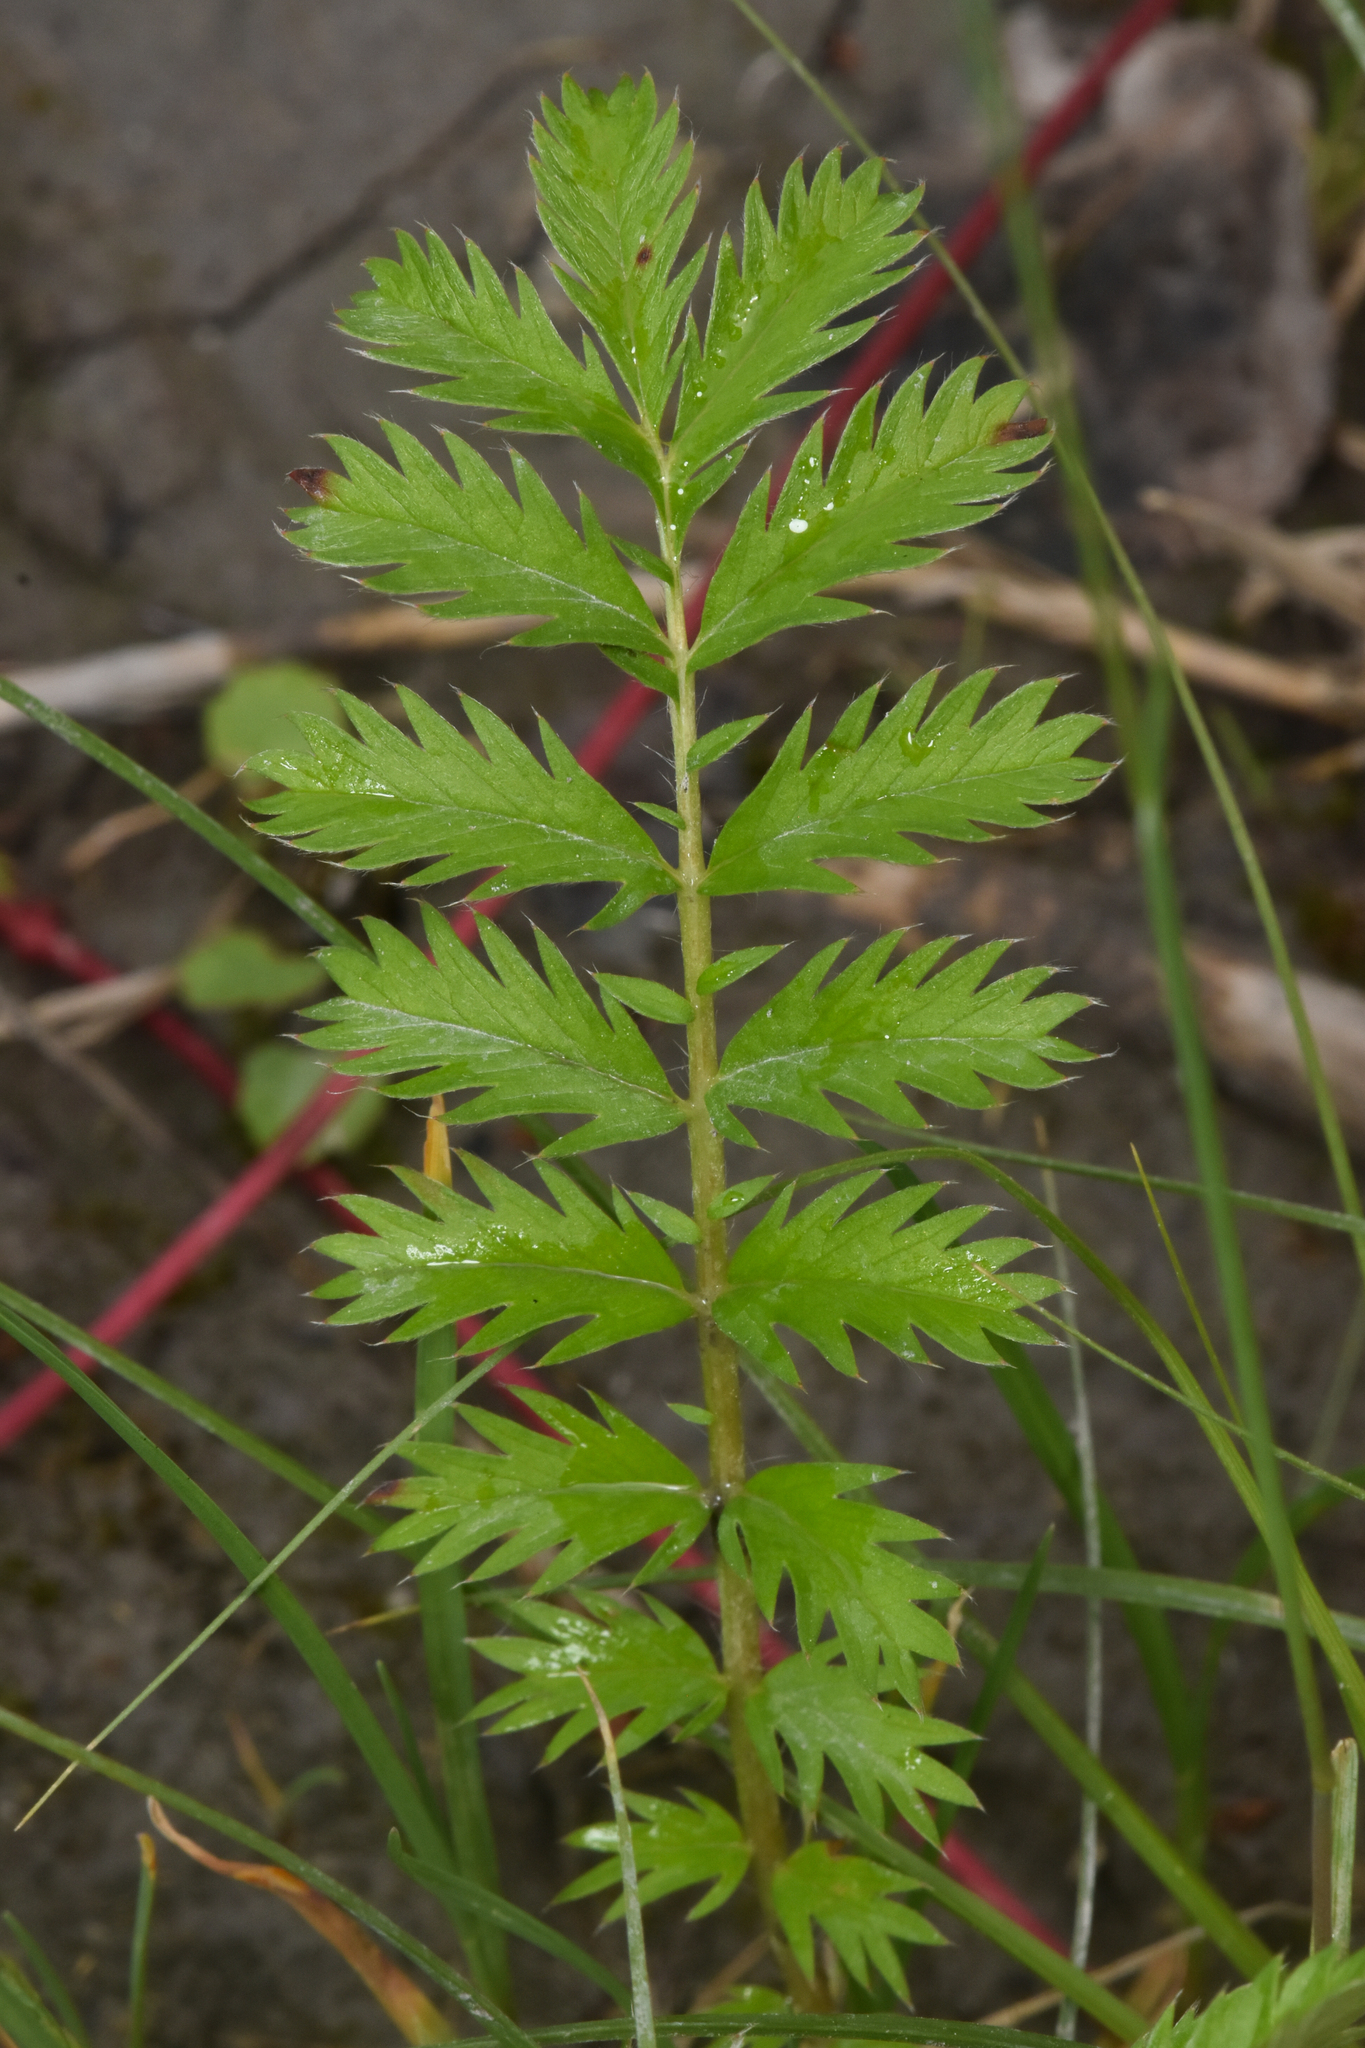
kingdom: Plantae
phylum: Tracheophyta
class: Magnoliopsida
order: Rosales
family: Rosaceae
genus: Argentina
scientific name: Argentina anserina
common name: Common silverweed
